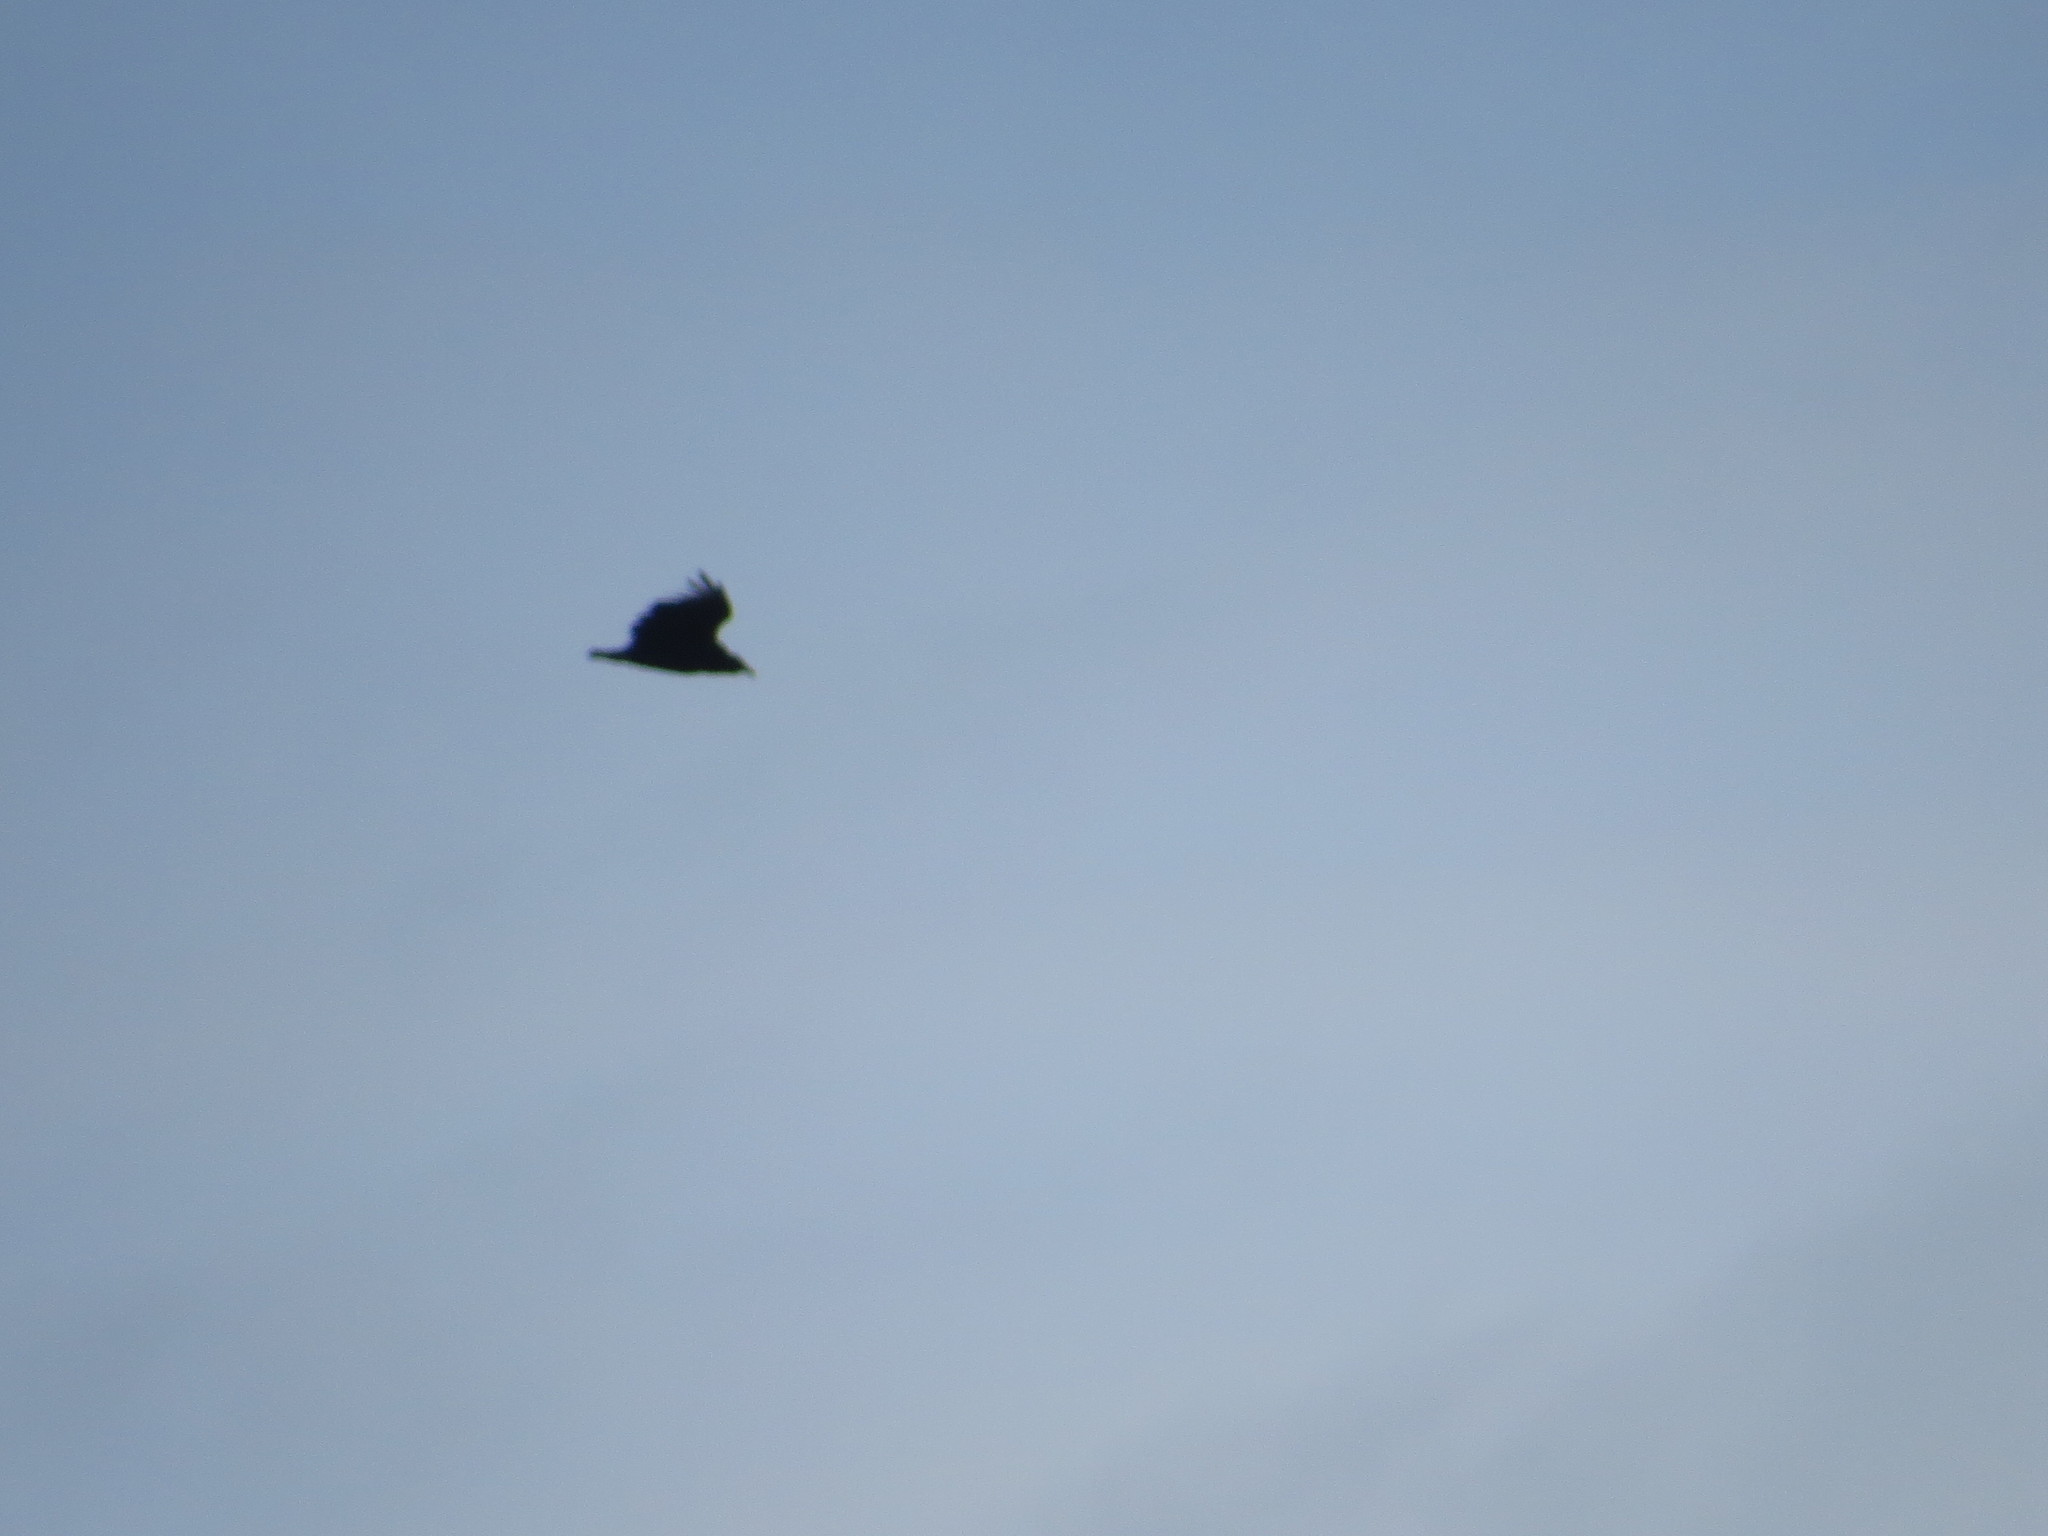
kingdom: Animalia
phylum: Chordata
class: Aves
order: Accipitriformes
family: Cathartidae
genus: Coragyps
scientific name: Coragyps atratus
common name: Black vulture
